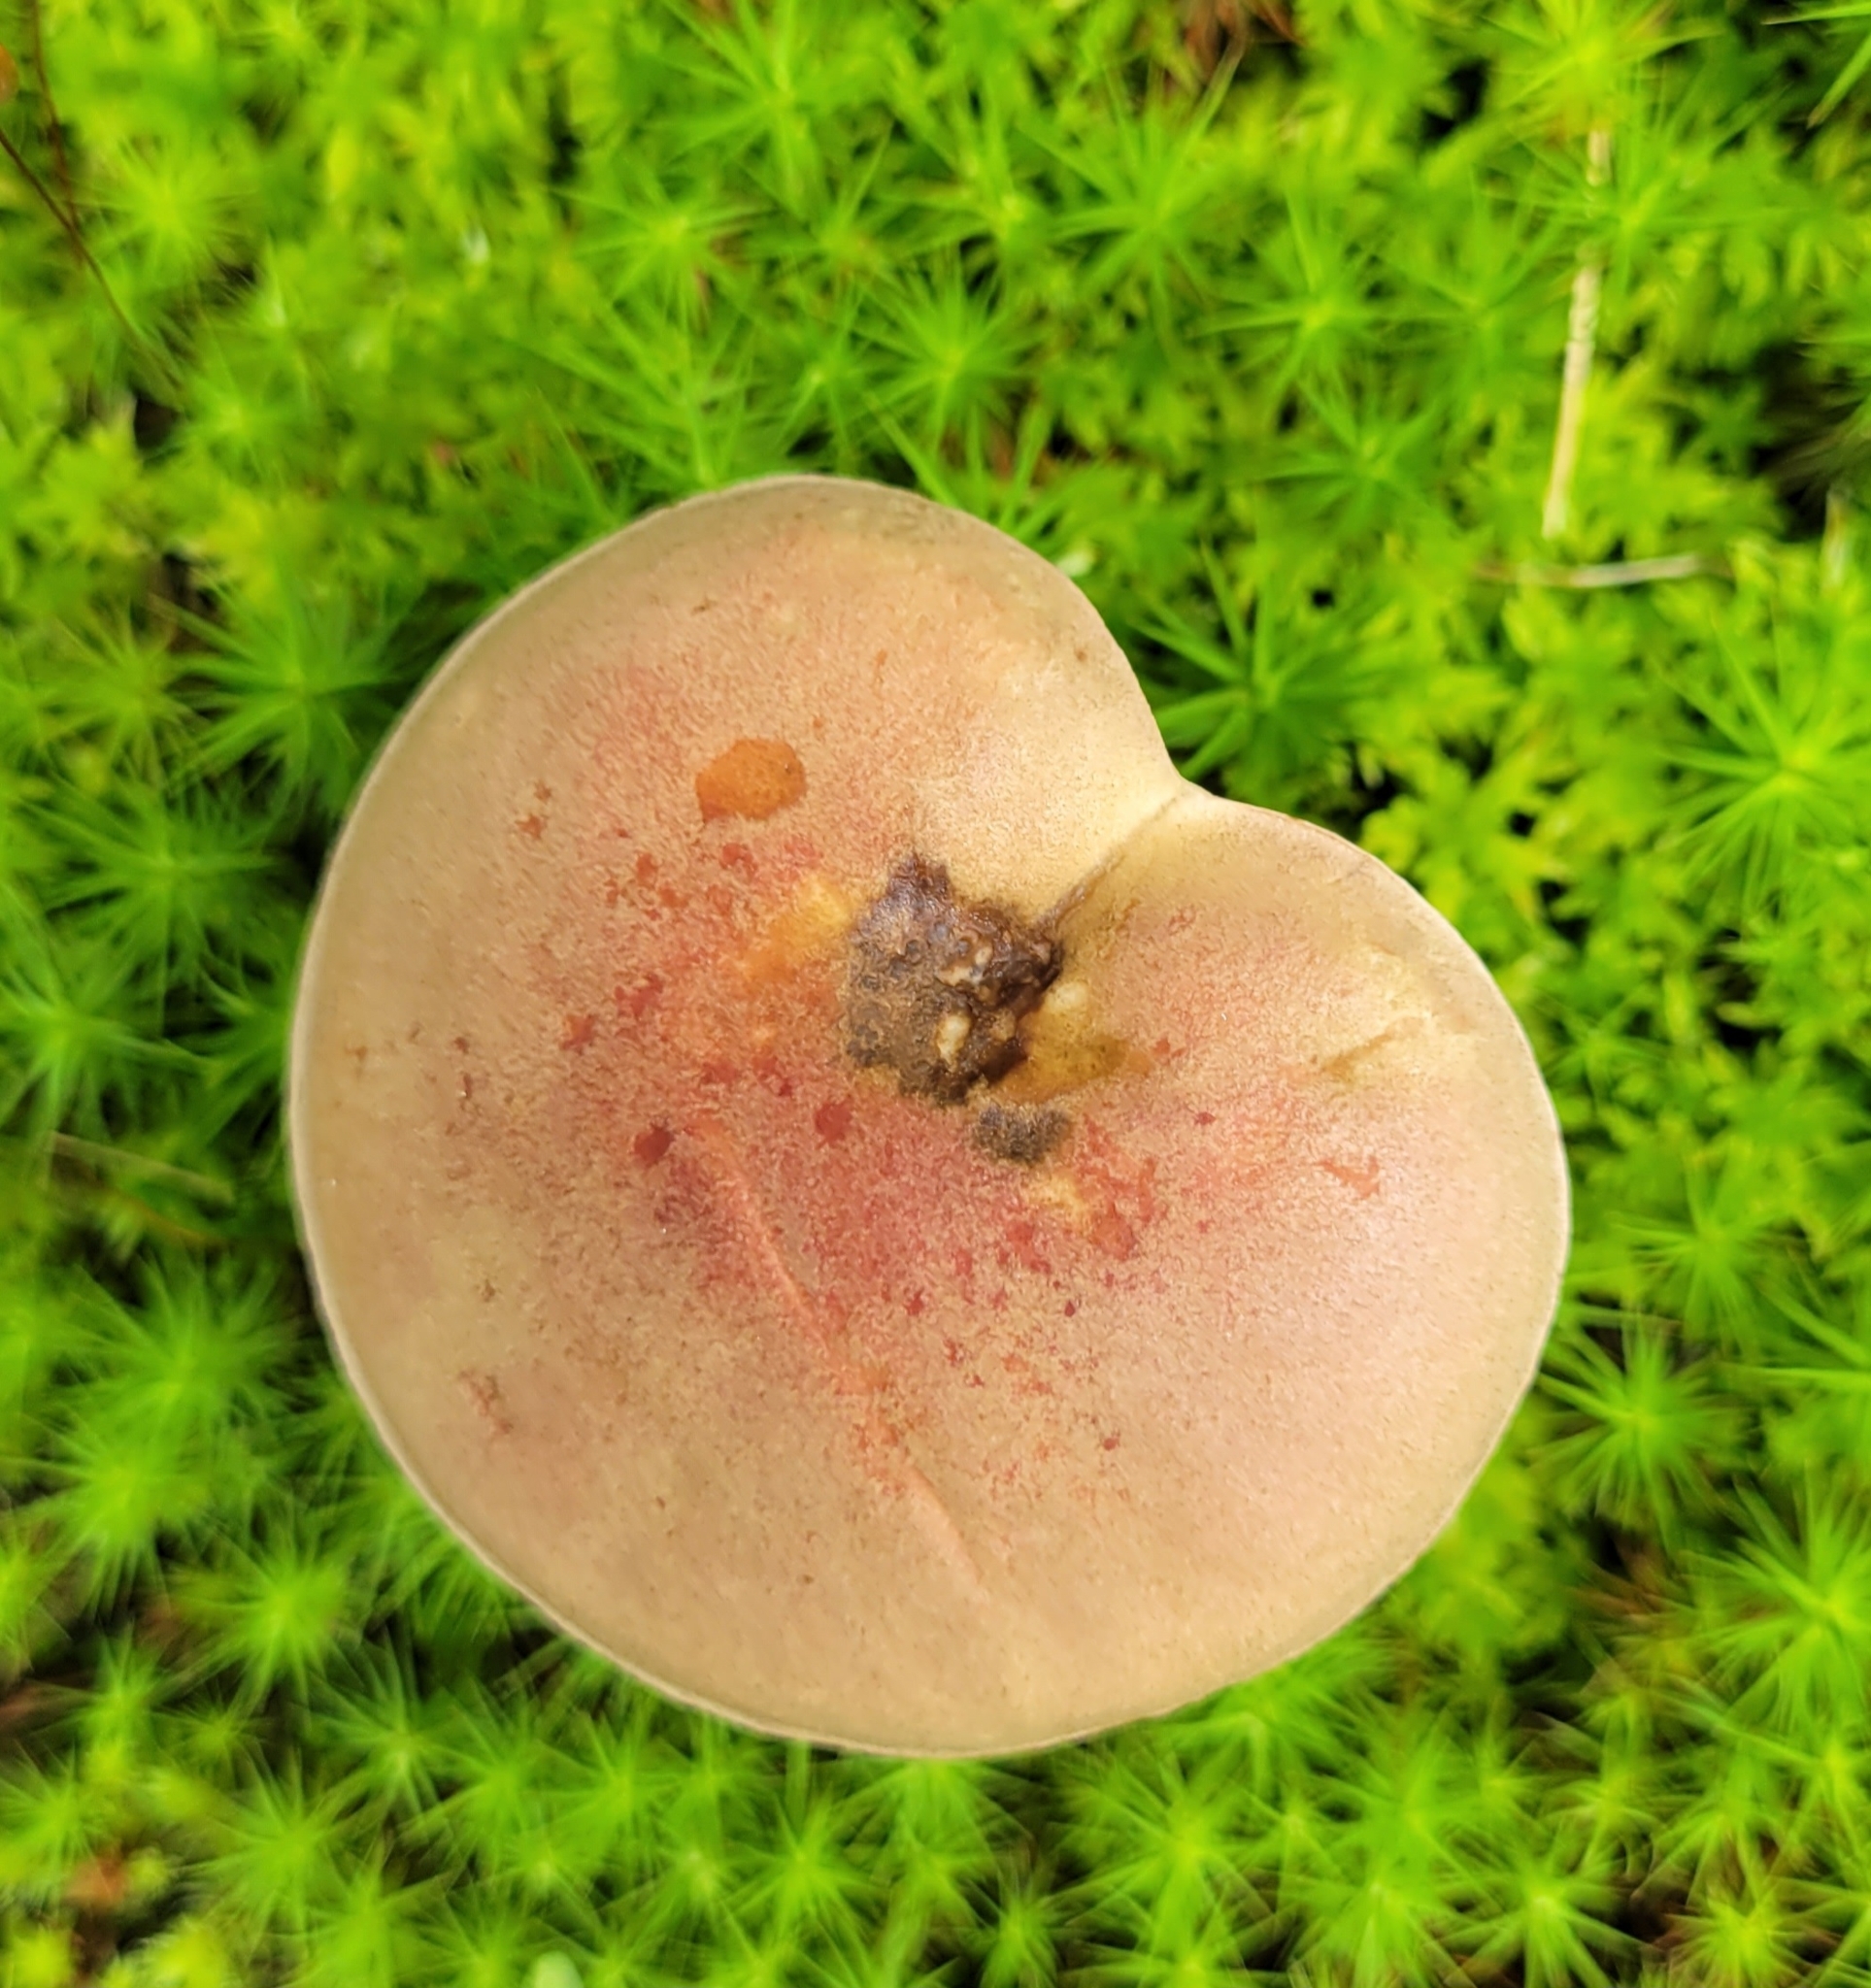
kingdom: Fungi
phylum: Basidiomycota
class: Agaricomycetes
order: Boletales
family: Boletaceae
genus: Harrya
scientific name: Harrya chromipes
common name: Chrome-footed bolete
